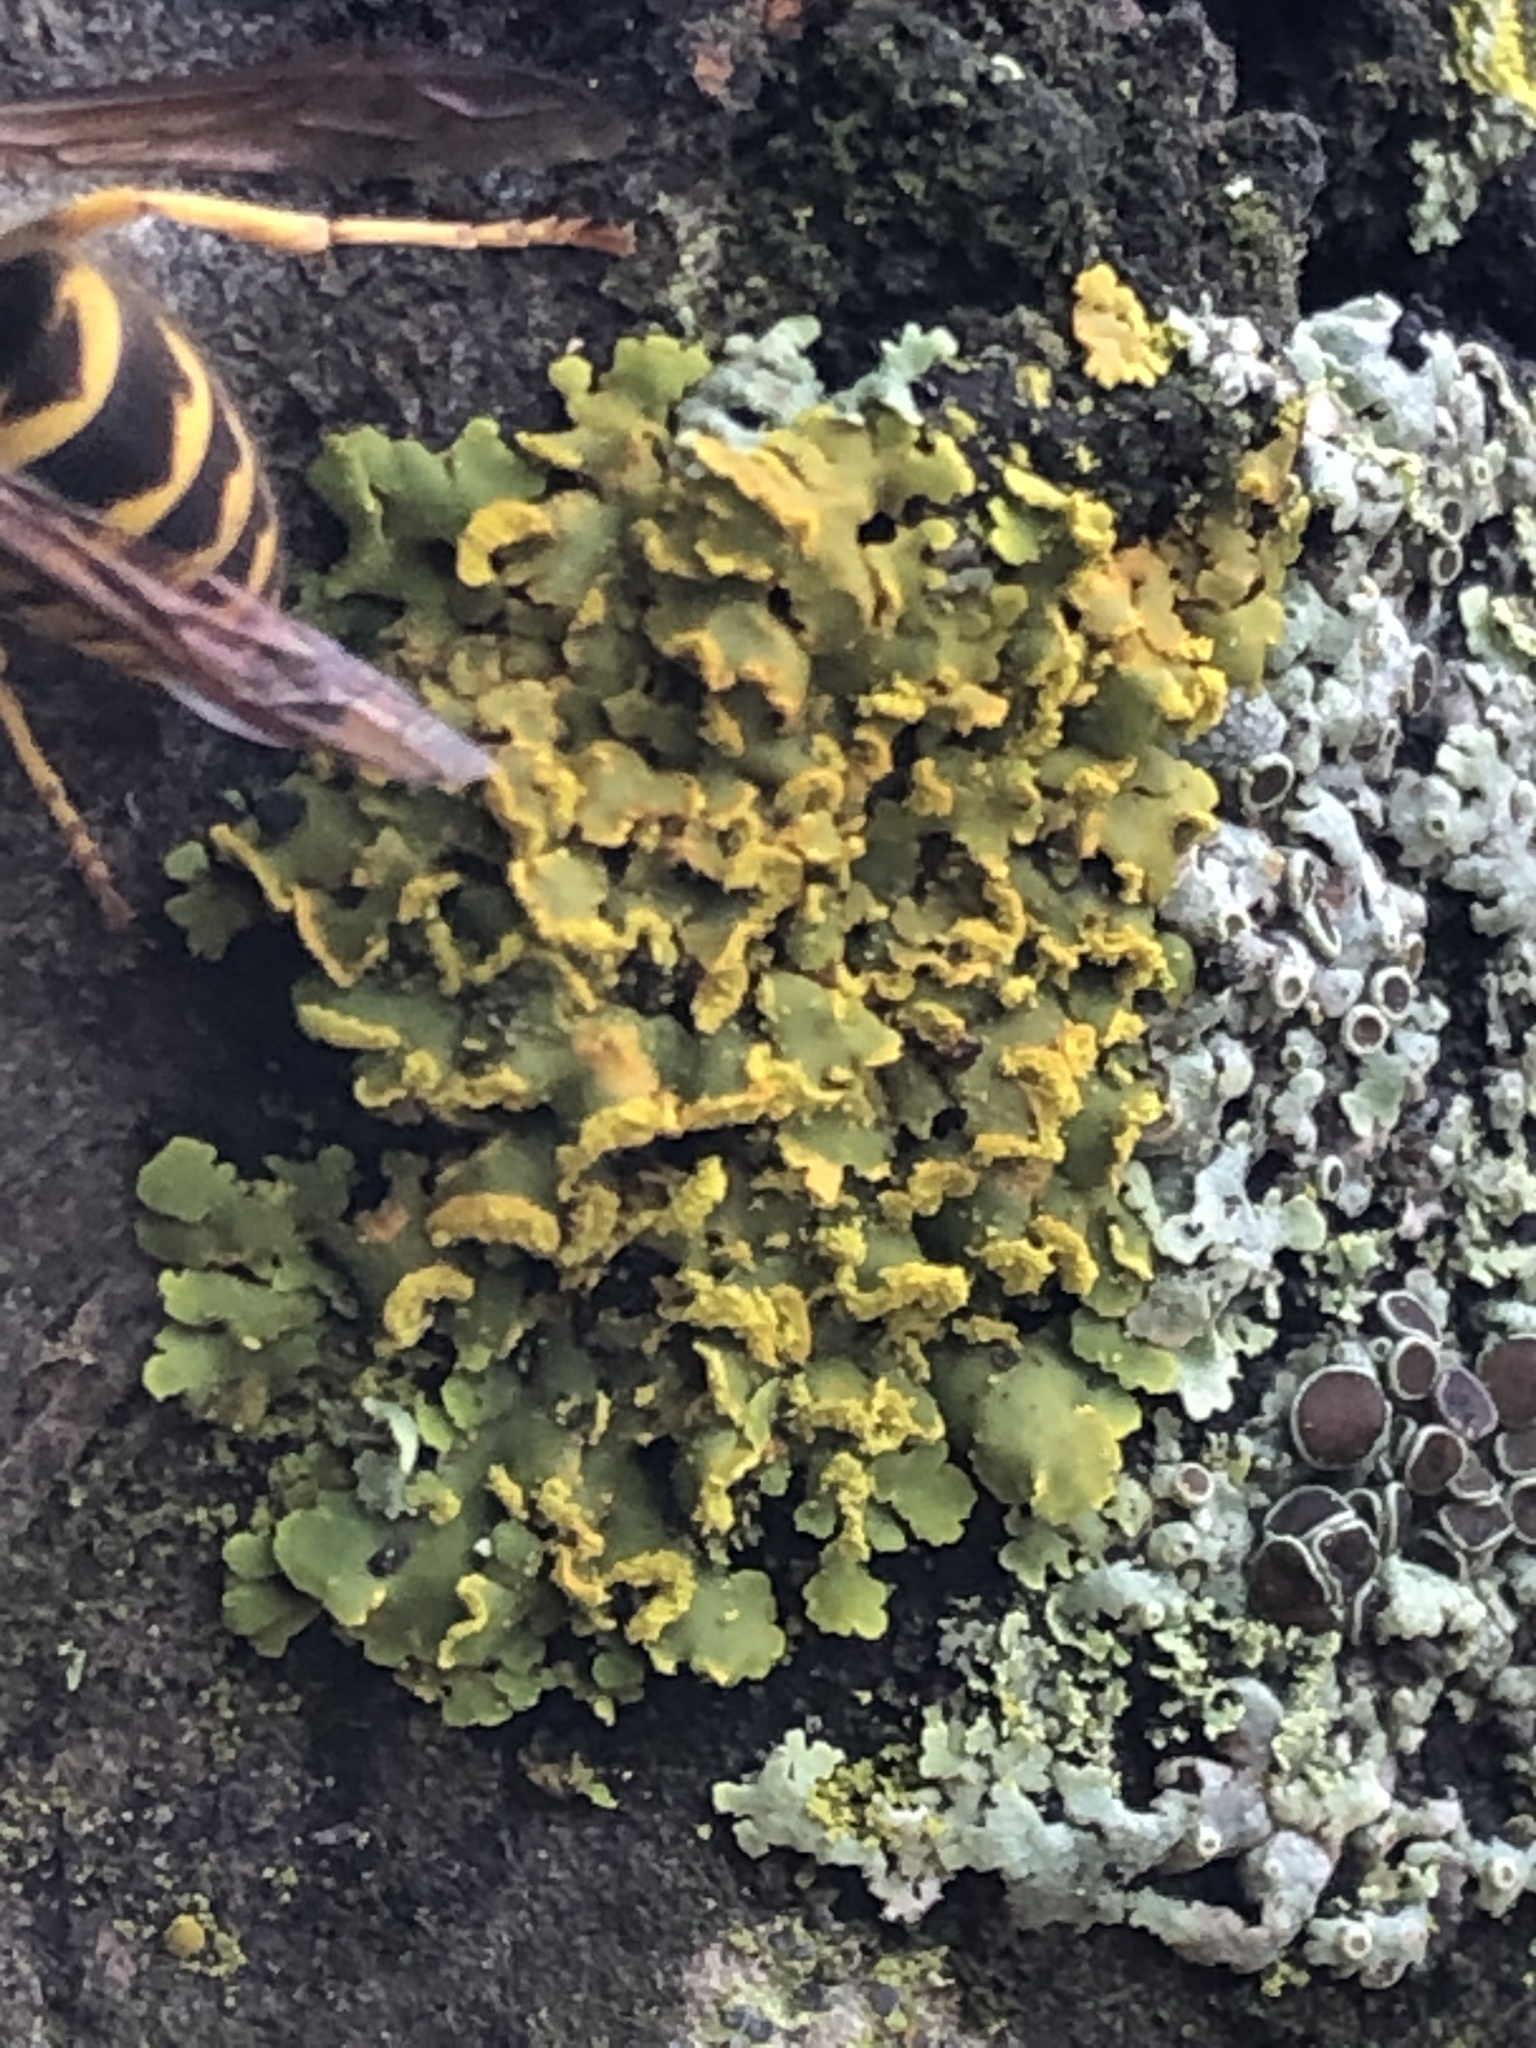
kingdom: Fungi
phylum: Ascomycota
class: Lecanoromycetes
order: Teloschistales
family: Teloschistaceae
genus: Oxneria
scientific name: Oxneria fallax
